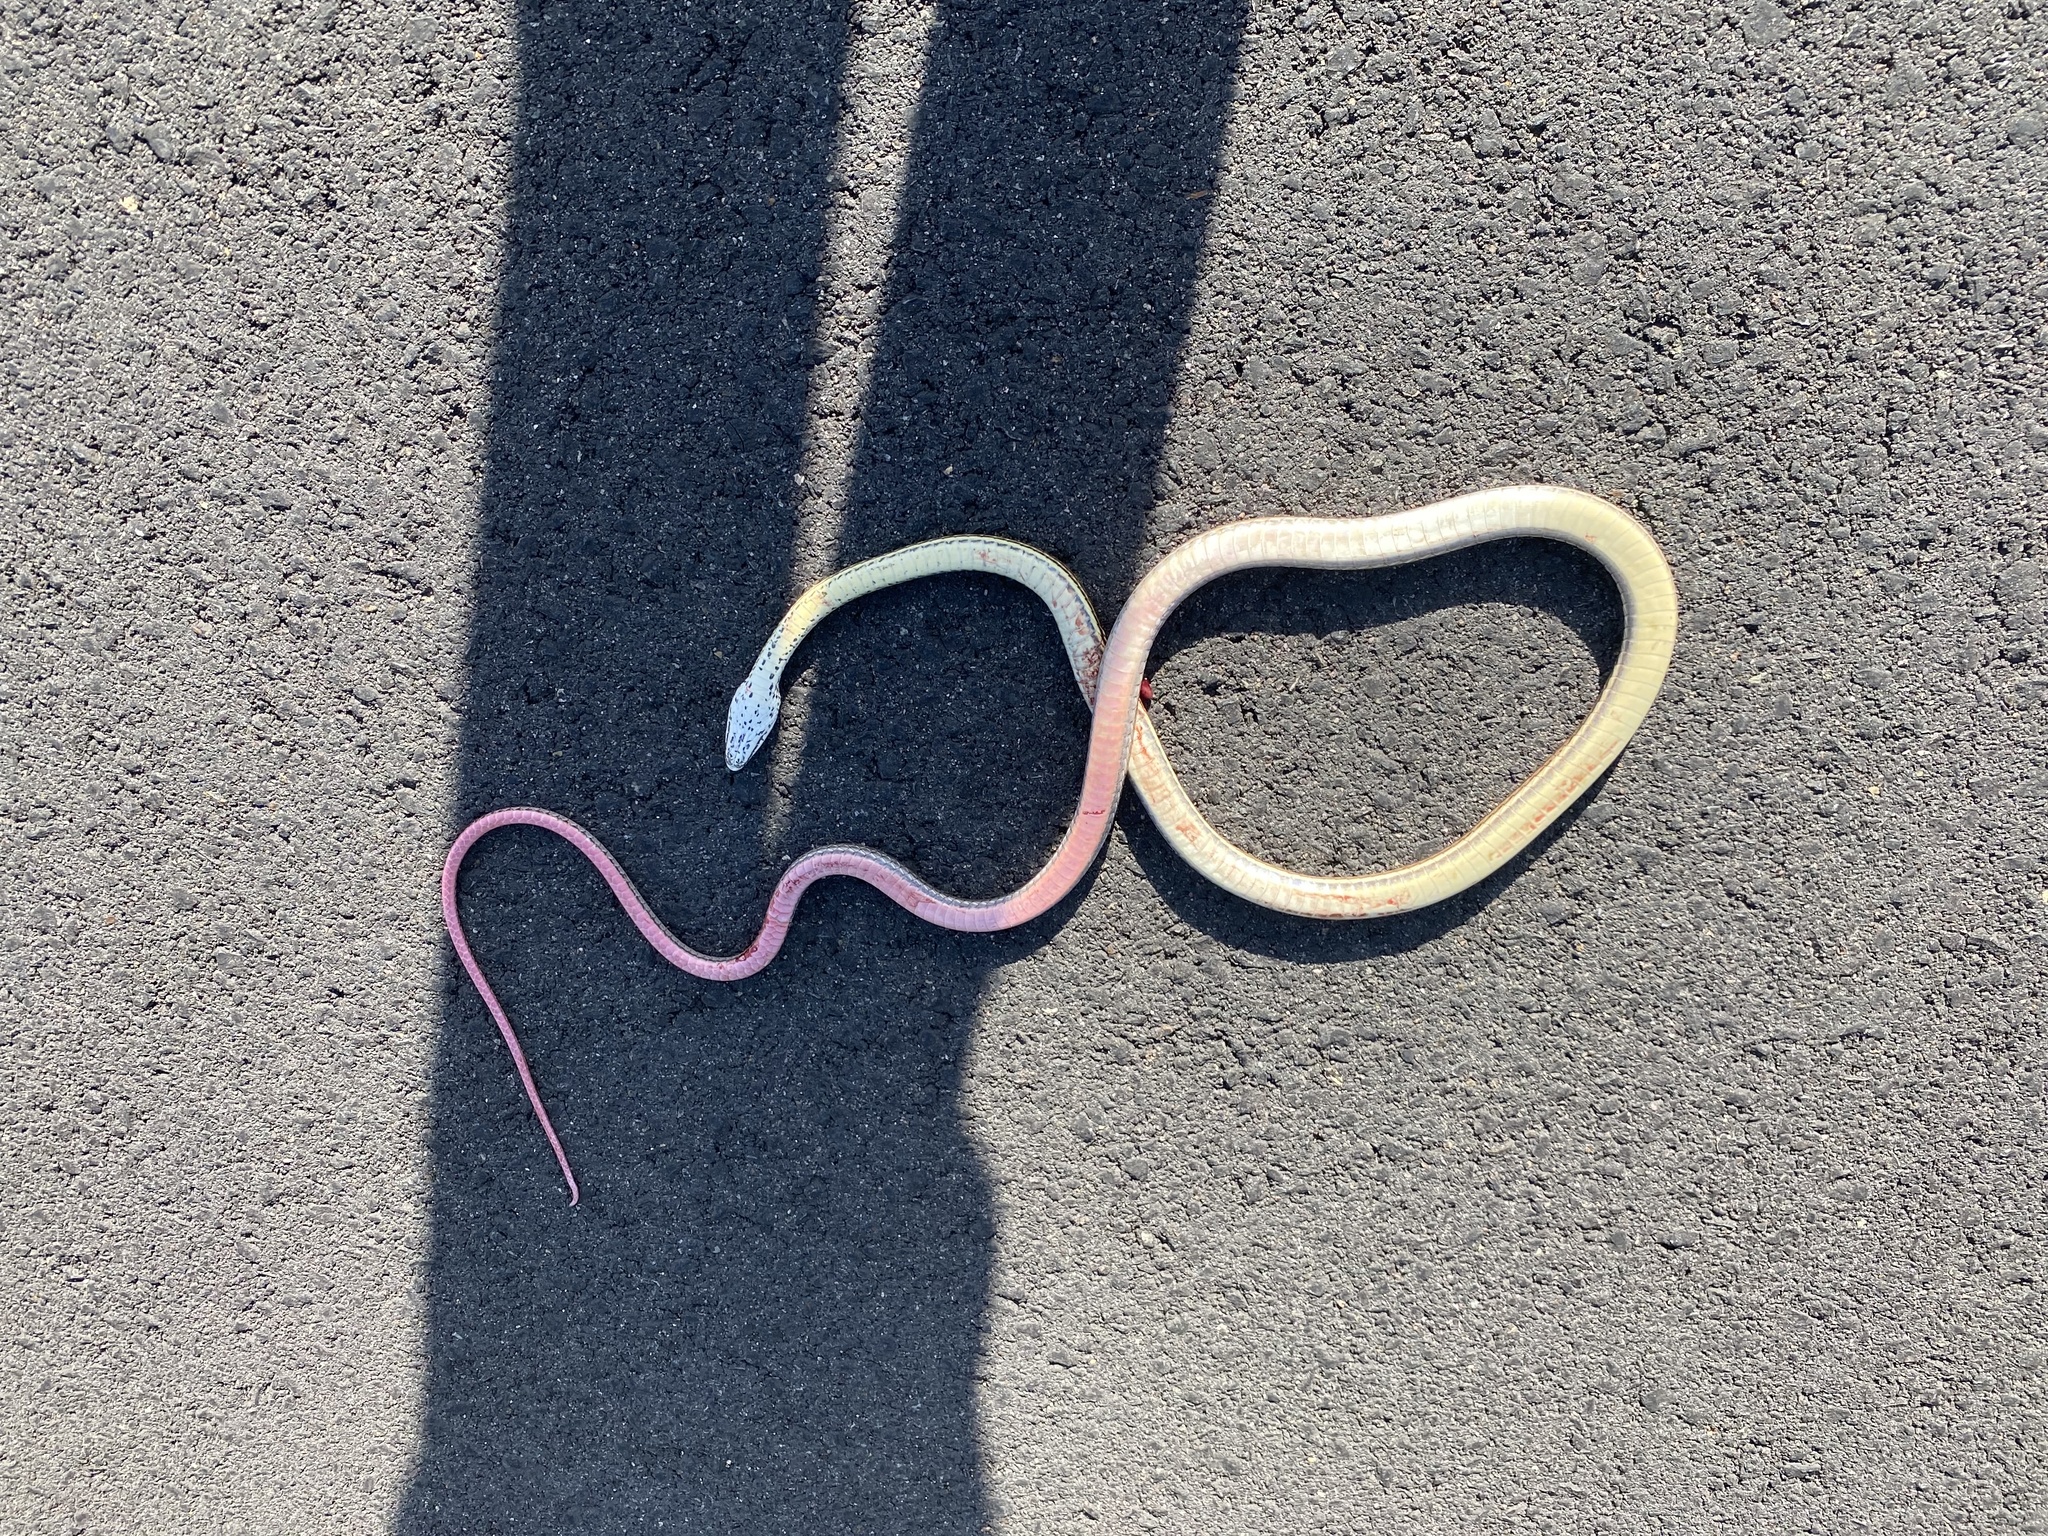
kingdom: Animalia
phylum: Chordata
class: Squamata
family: Colubridae
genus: Masticophis
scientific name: Masticophis taeniatus
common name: Striped whipsnake
